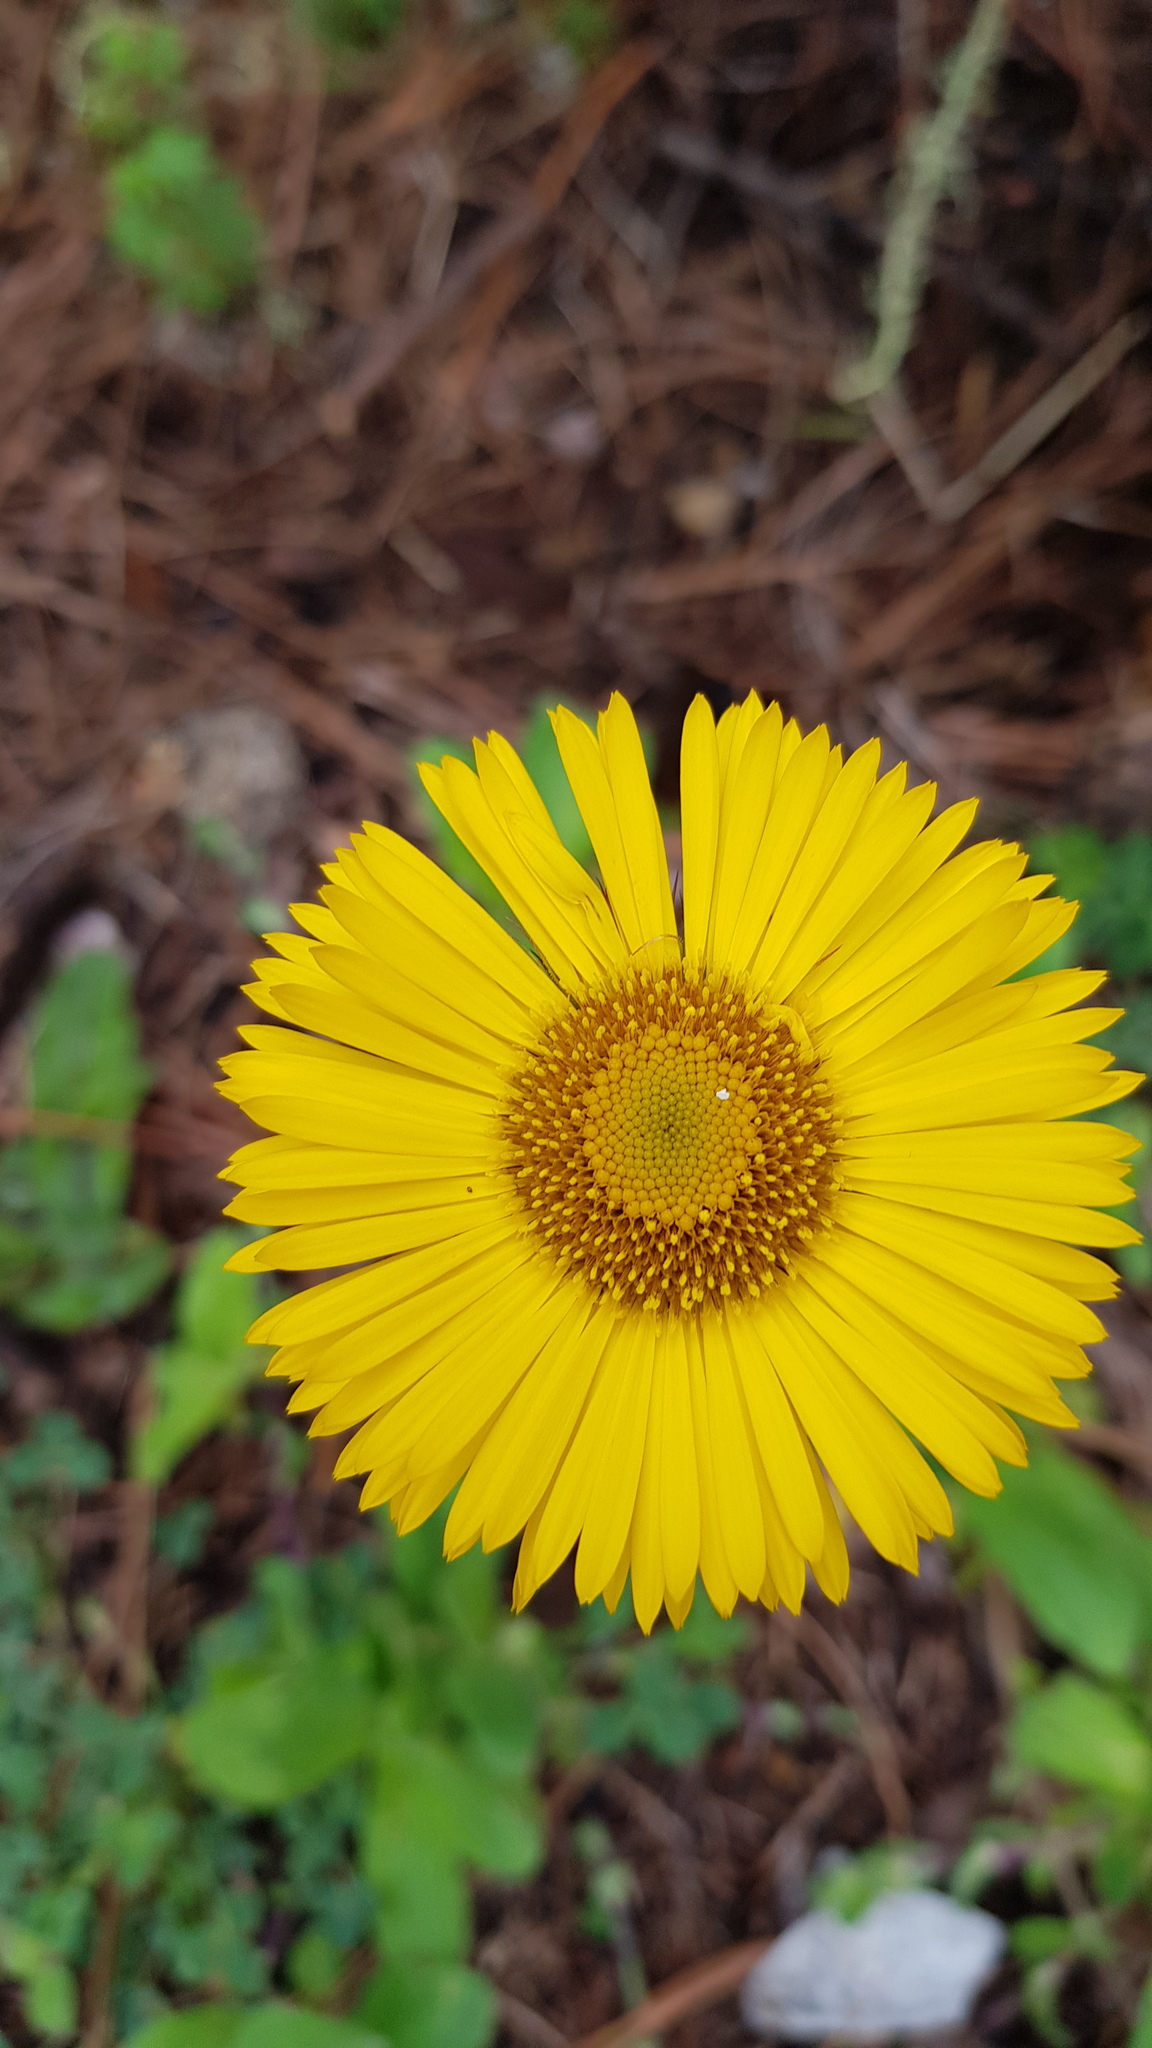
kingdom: Plantae
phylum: Tracheophyta
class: Magnoliopsida
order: Asterales
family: Asteraceae
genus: Osbertia
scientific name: Osbertia stolonifera
